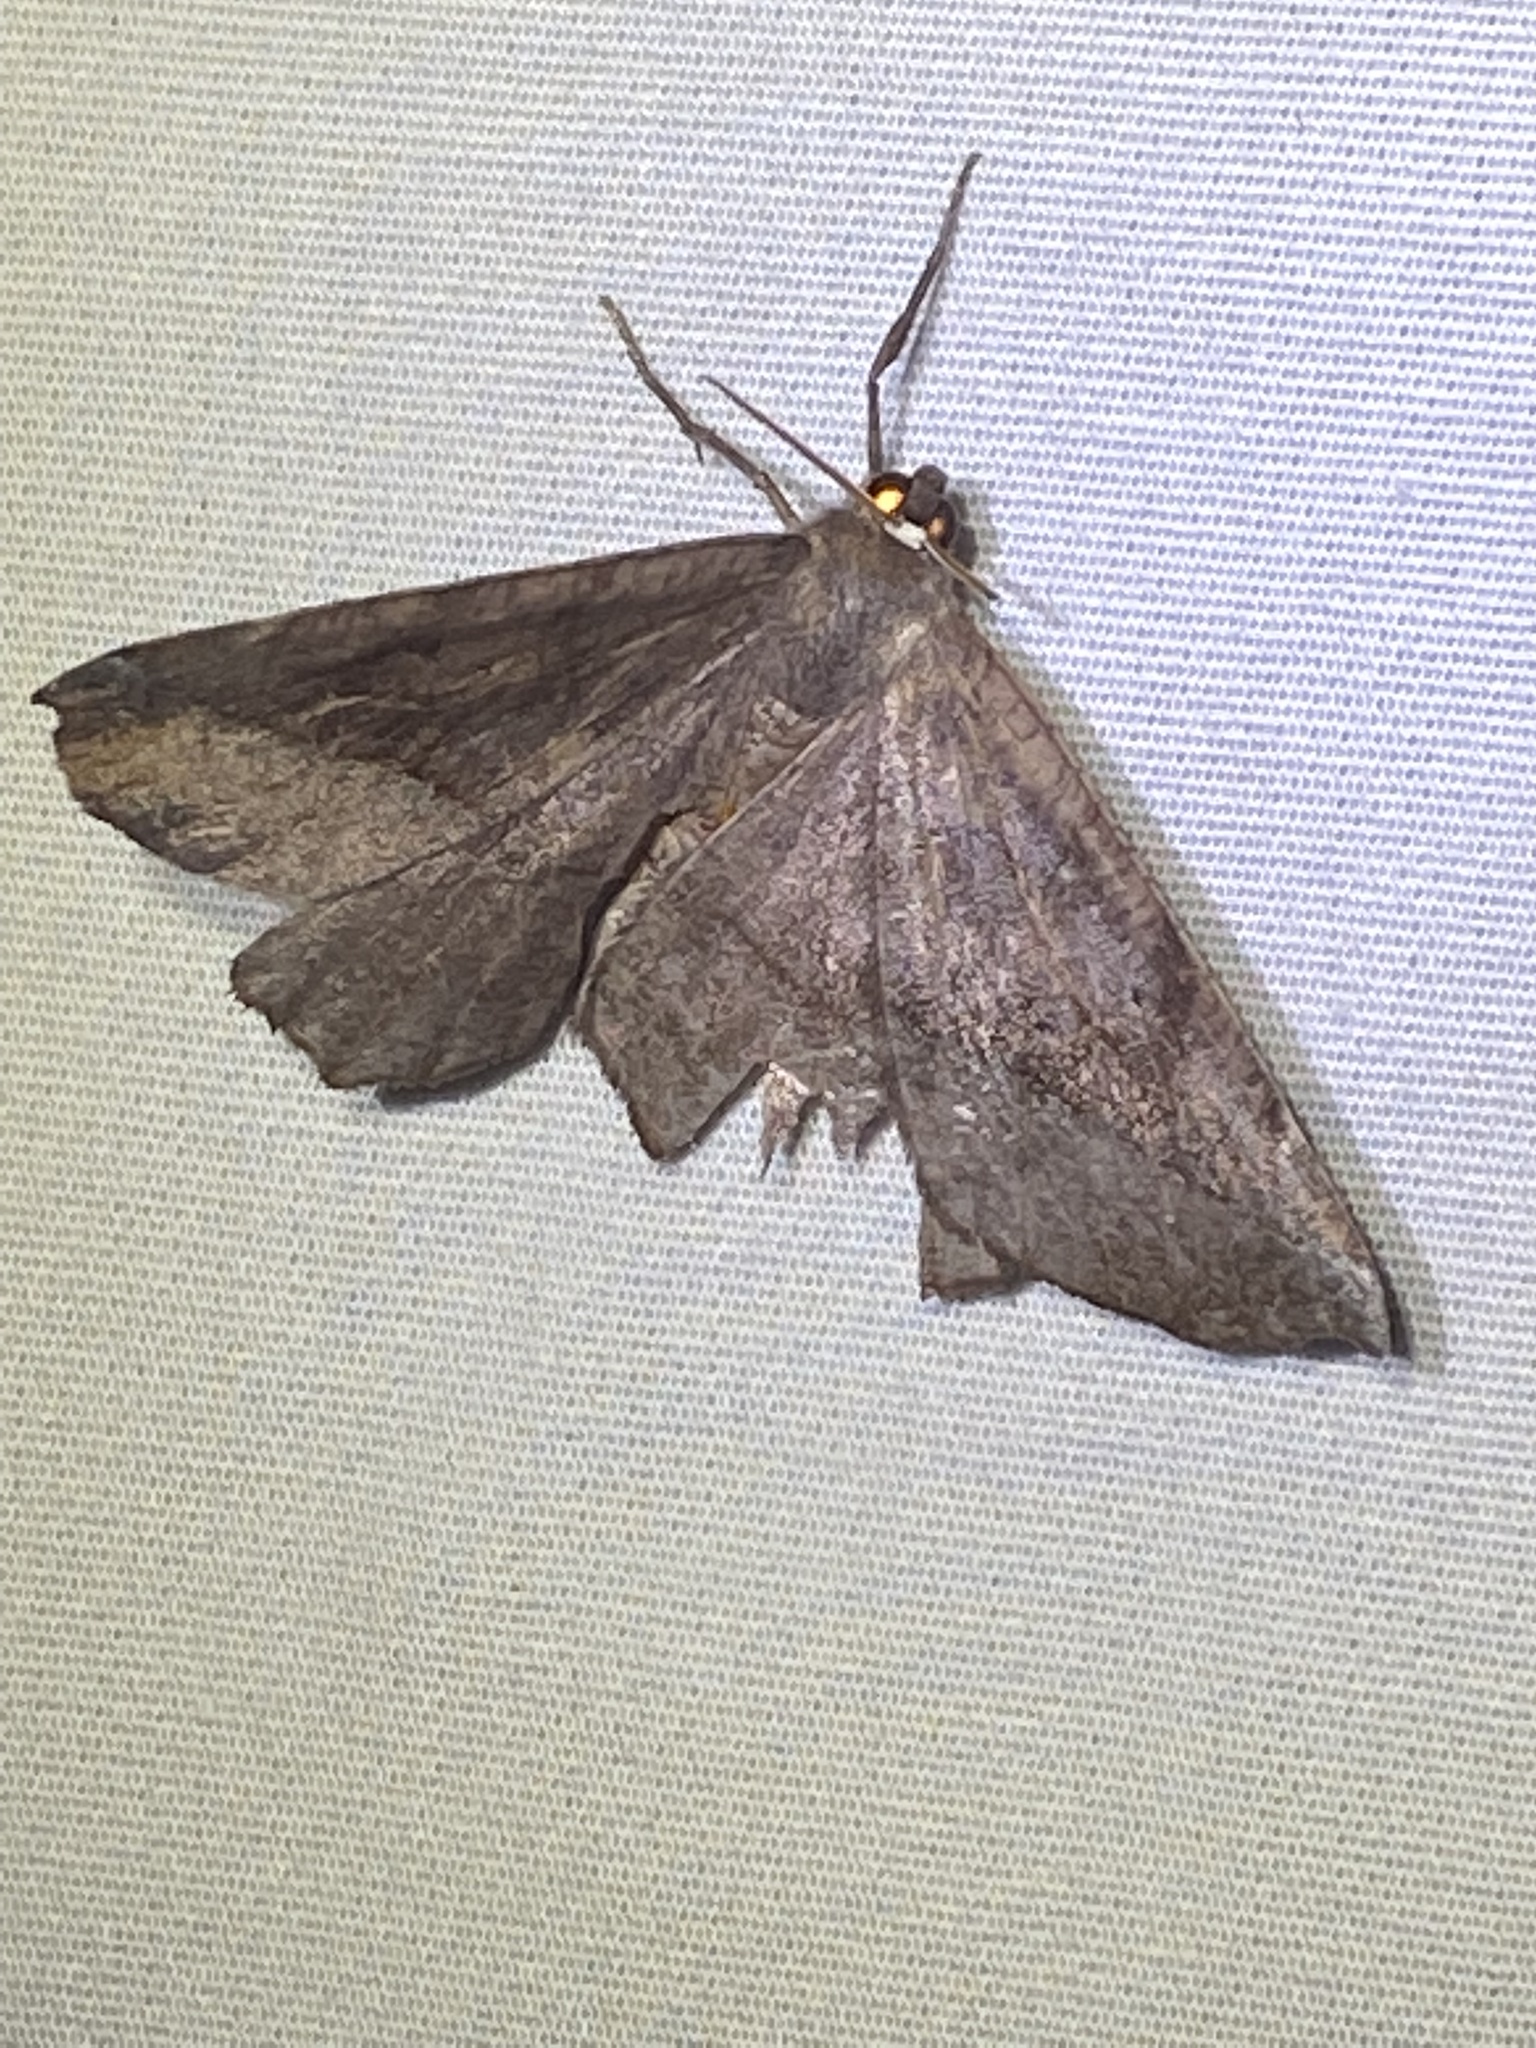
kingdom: Animalia
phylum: Arthropoda
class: Insecta
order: Lepidoptera
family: Geometridae
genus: Eutrapela
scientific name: Eutrapela clemataria
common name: Curved-toothed geometer
